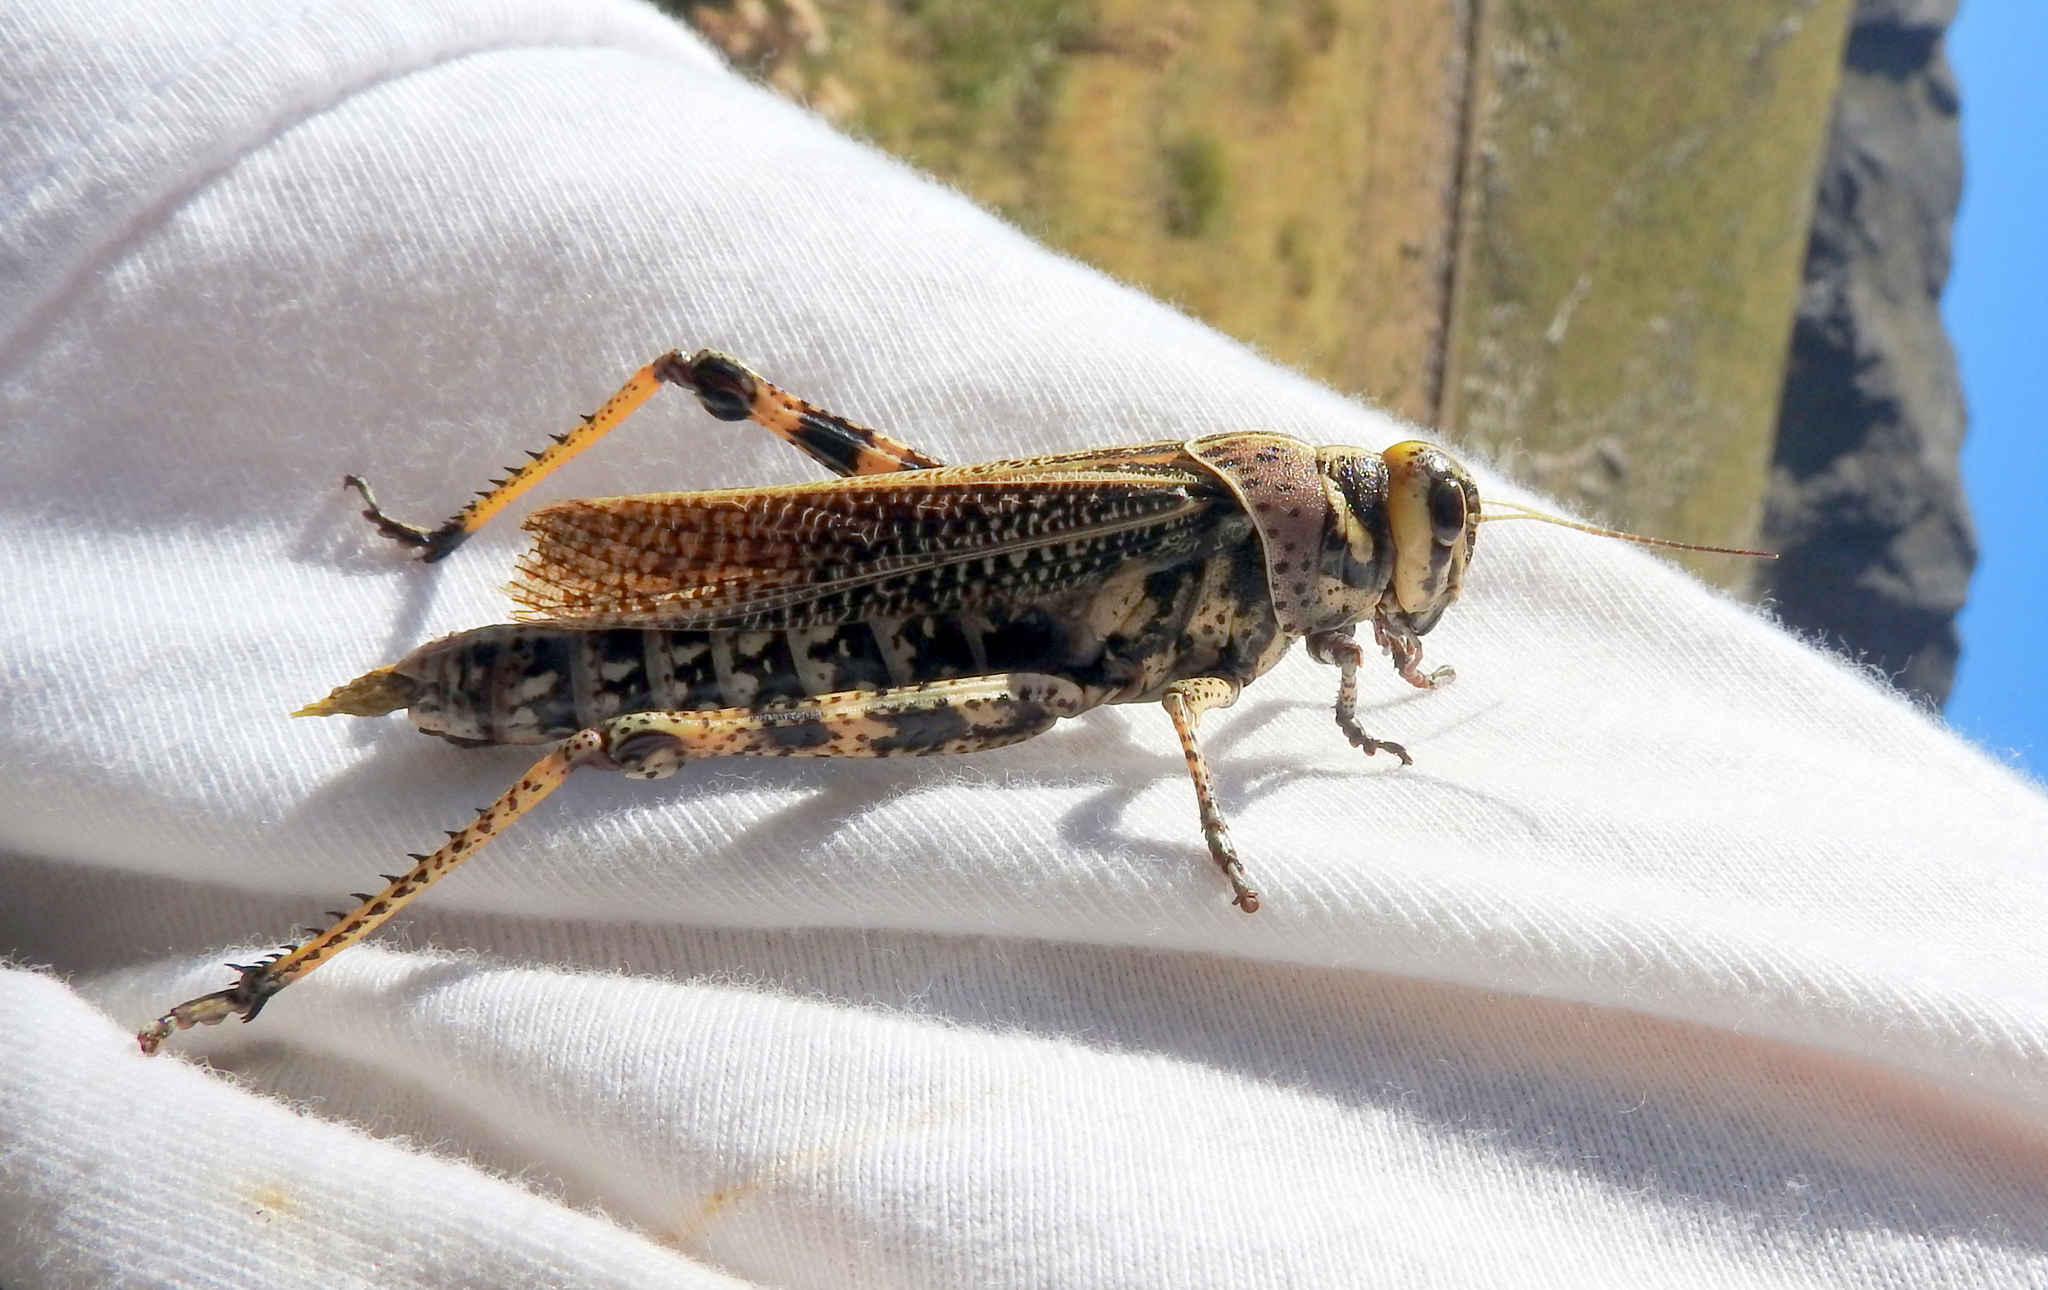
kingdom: Animalia
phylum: Arthropoda
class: Insecta
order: Orthoptera
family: Romaleidae
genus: Diponthus
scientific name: Diponthus cribratus
